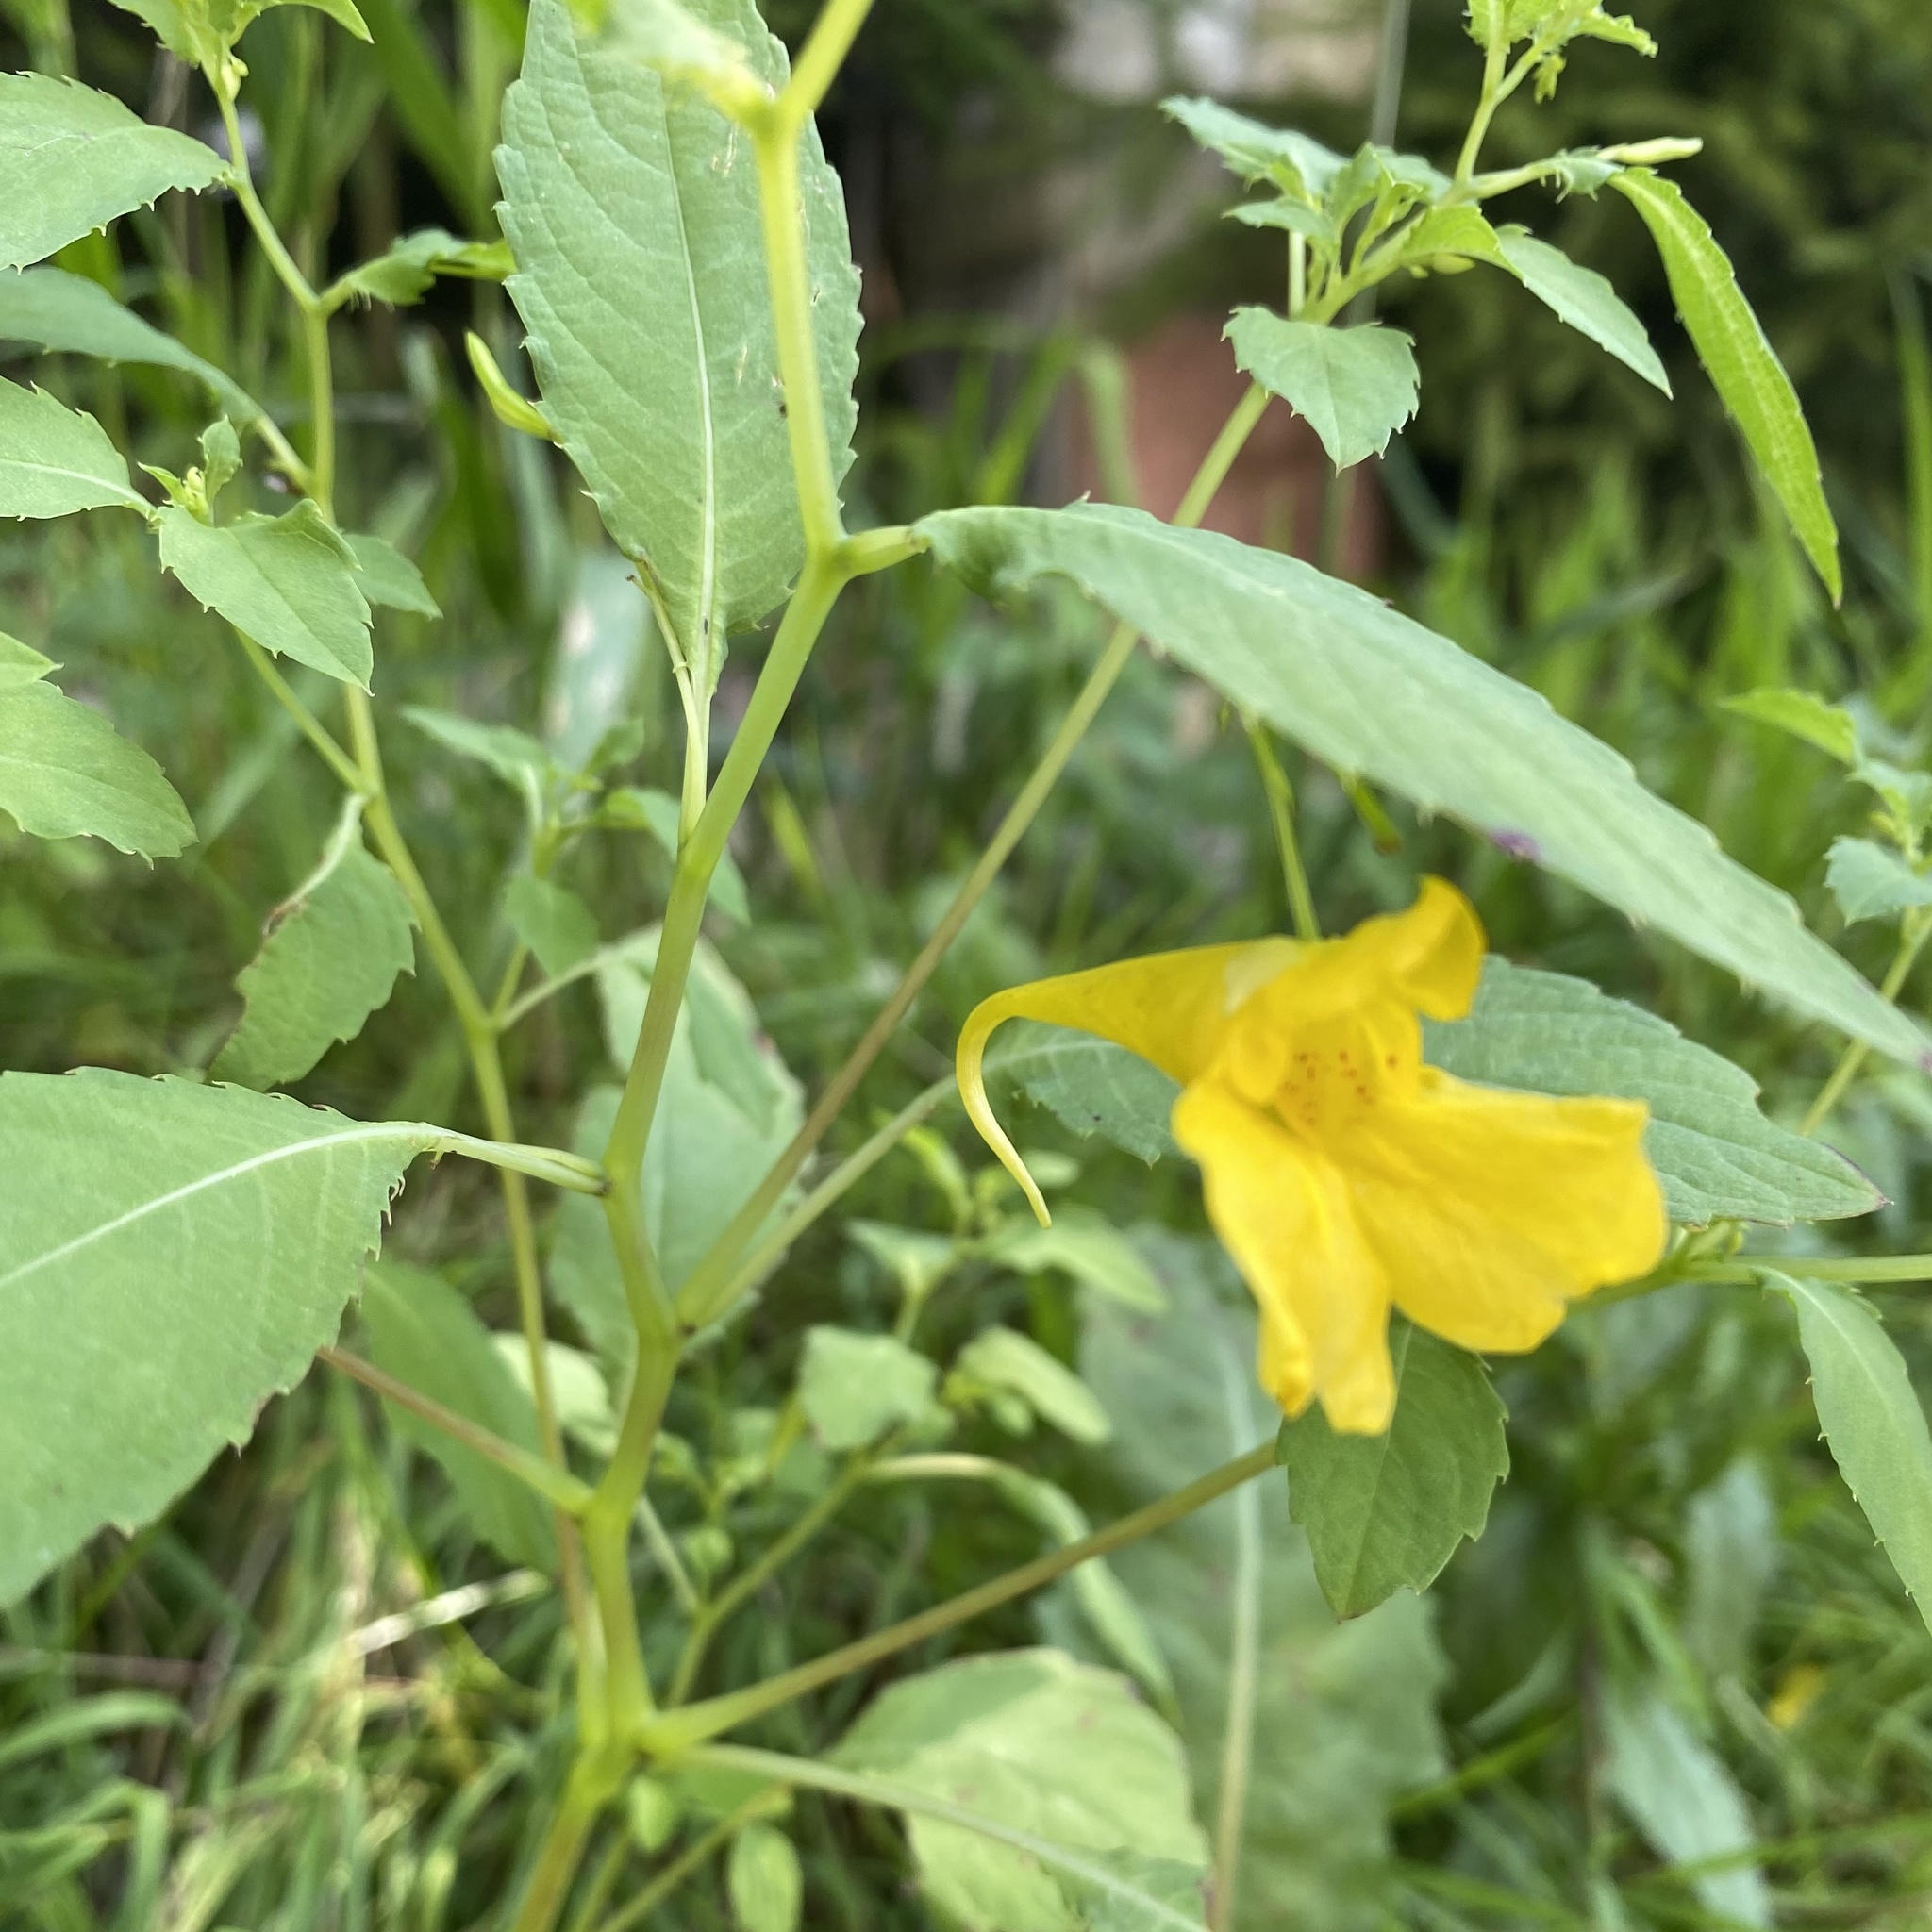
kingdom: Plantae
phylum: Tracheophyta
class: Magnoliopsida
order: Ericales
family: Balsaminaceae
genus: Impatiens
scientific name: Impatiens noli-tangere
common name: Touch-me-not balsam
